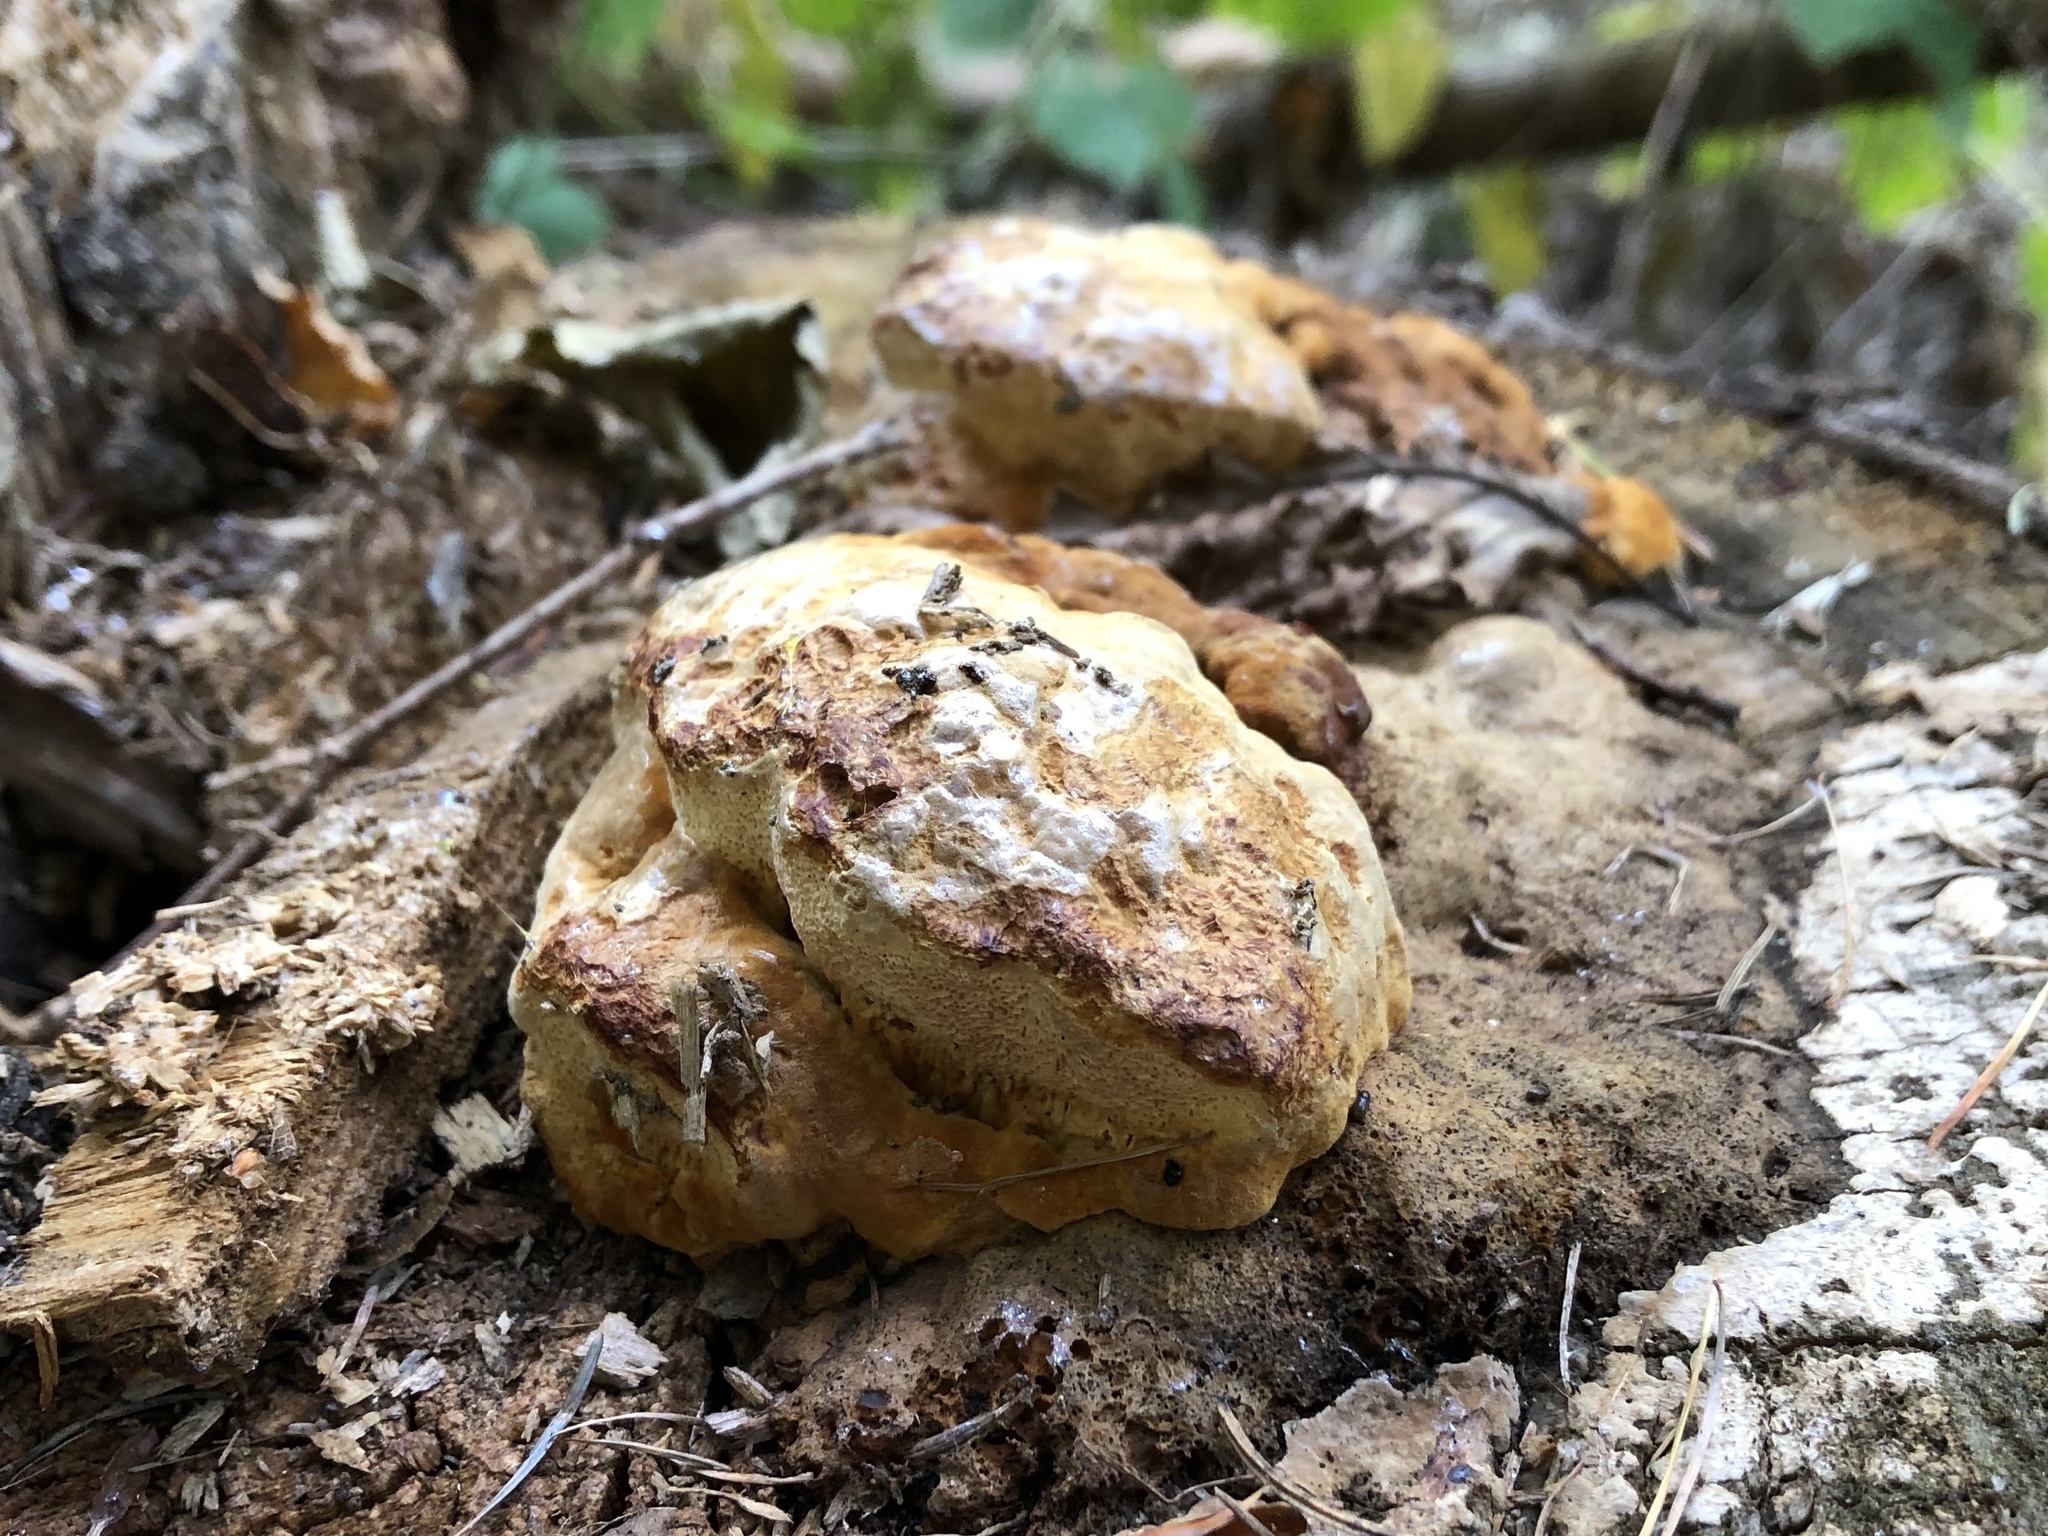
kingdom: Fungi
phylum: Basidiomycota
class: Agaricomycetes
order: Gloeophyllales
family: Gloeophyllaceae
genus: Gloeophyllum
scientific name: Gloeophyllum odoratum
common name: Anise mazegill
